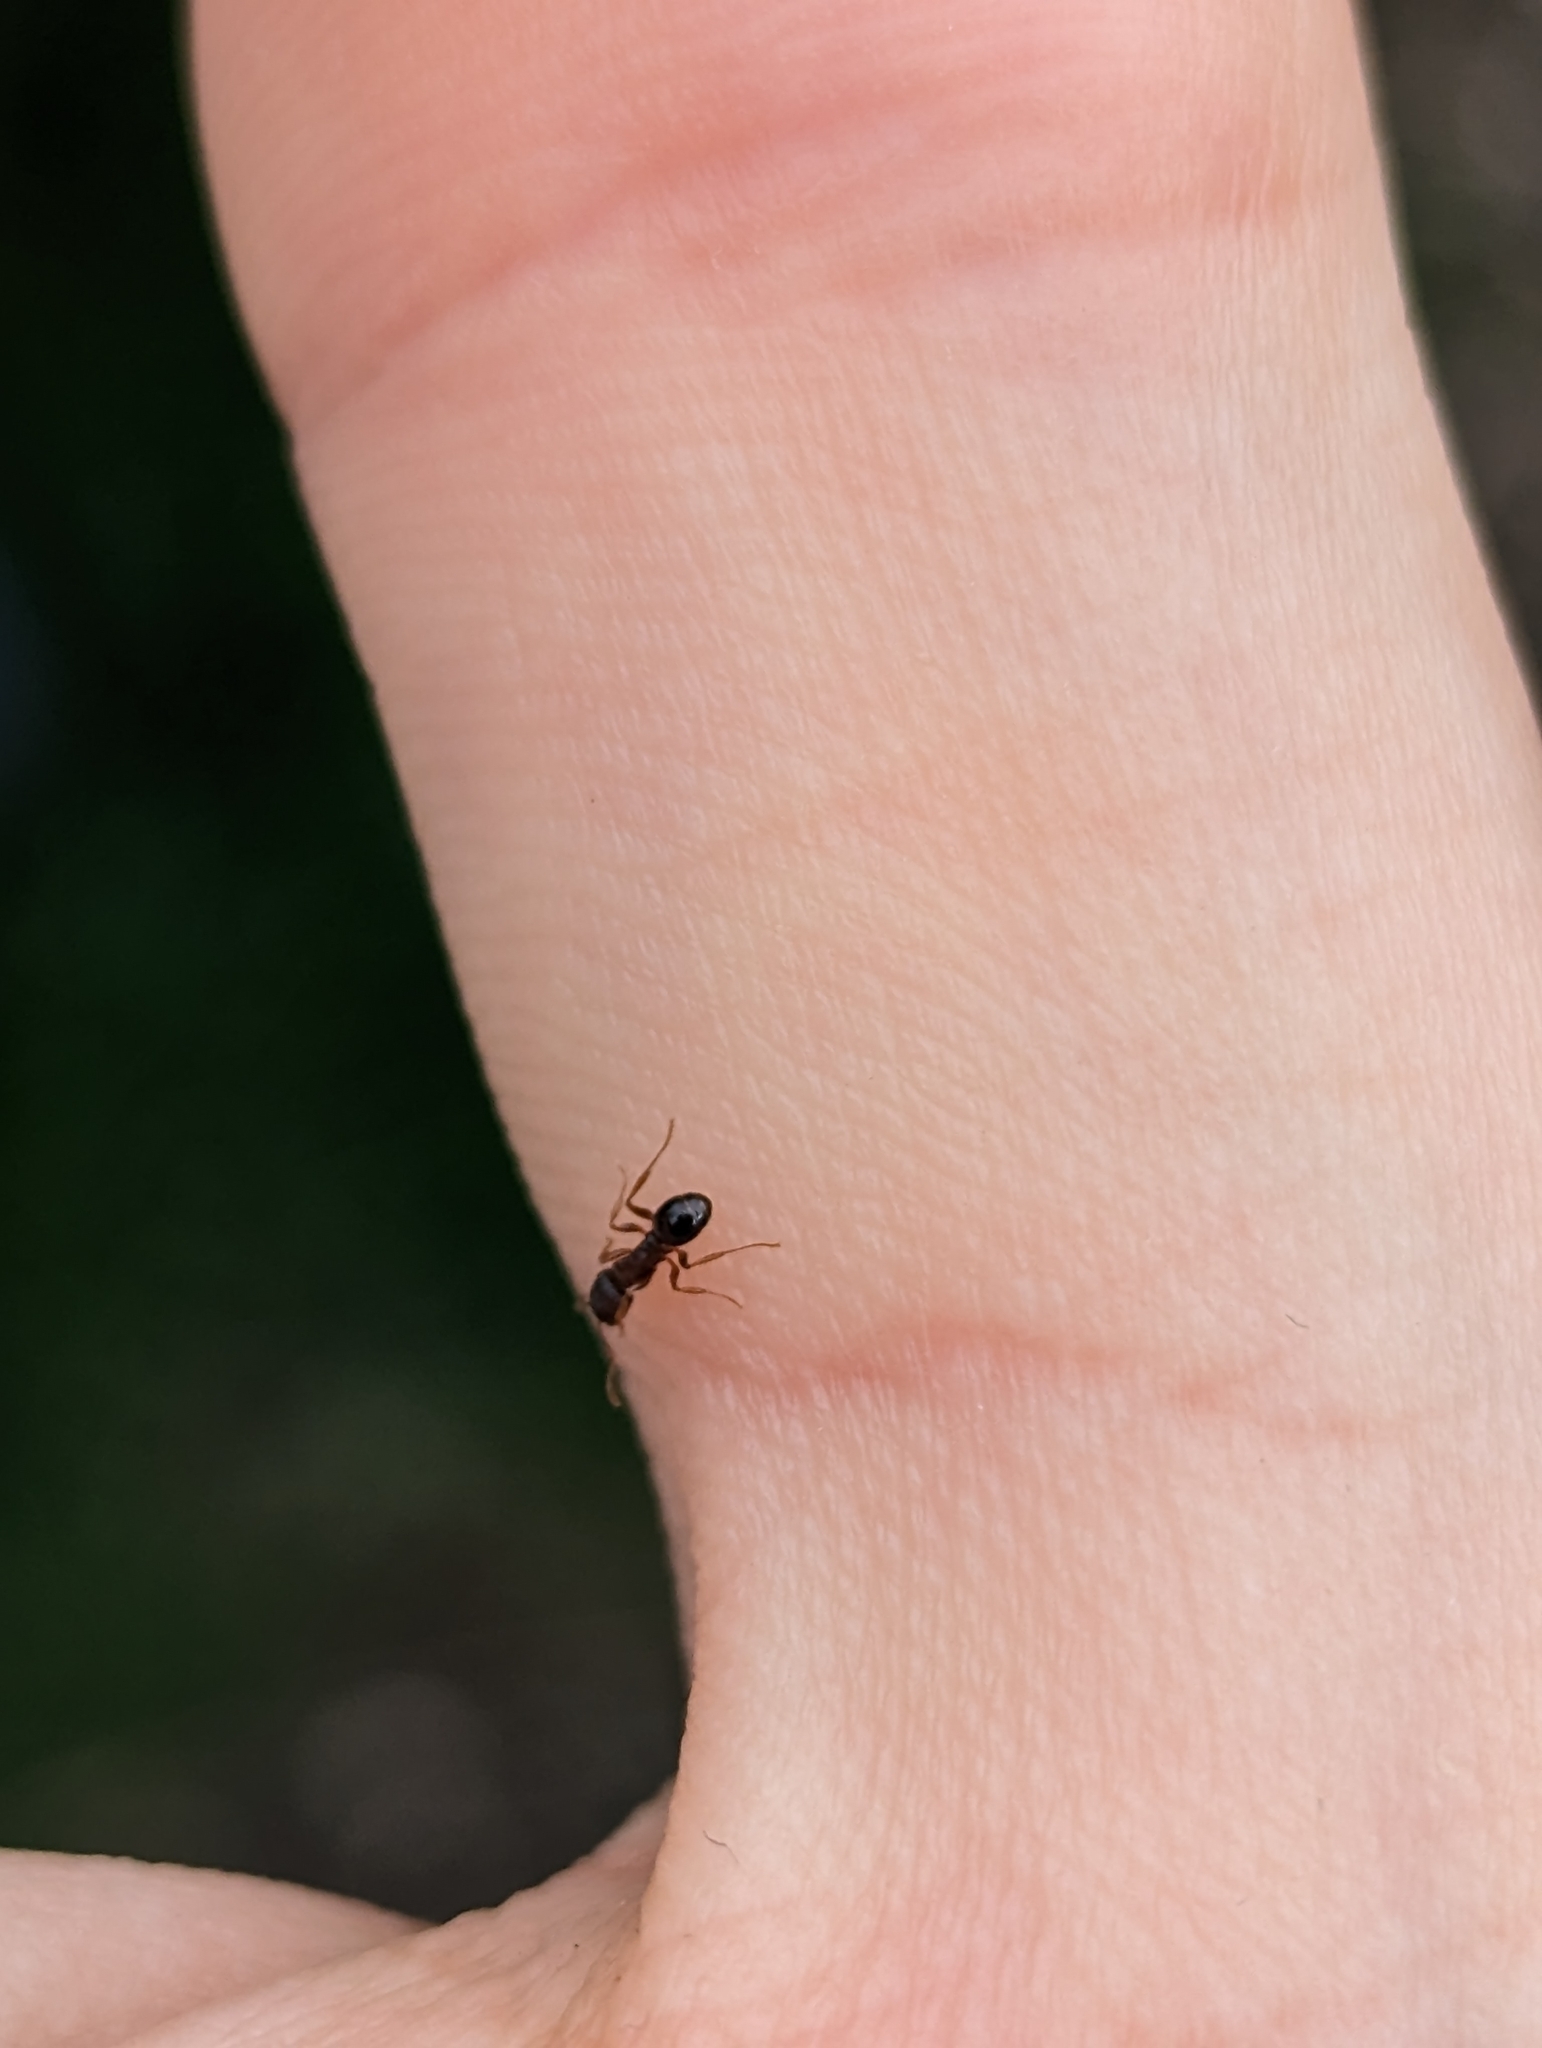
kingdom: Animalia
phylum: Arthropoda
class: Insecta
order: Hymenoptera
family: Formicidae
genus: Tetramorium
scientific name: Tetramorium immigrans
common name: Pavement ant
